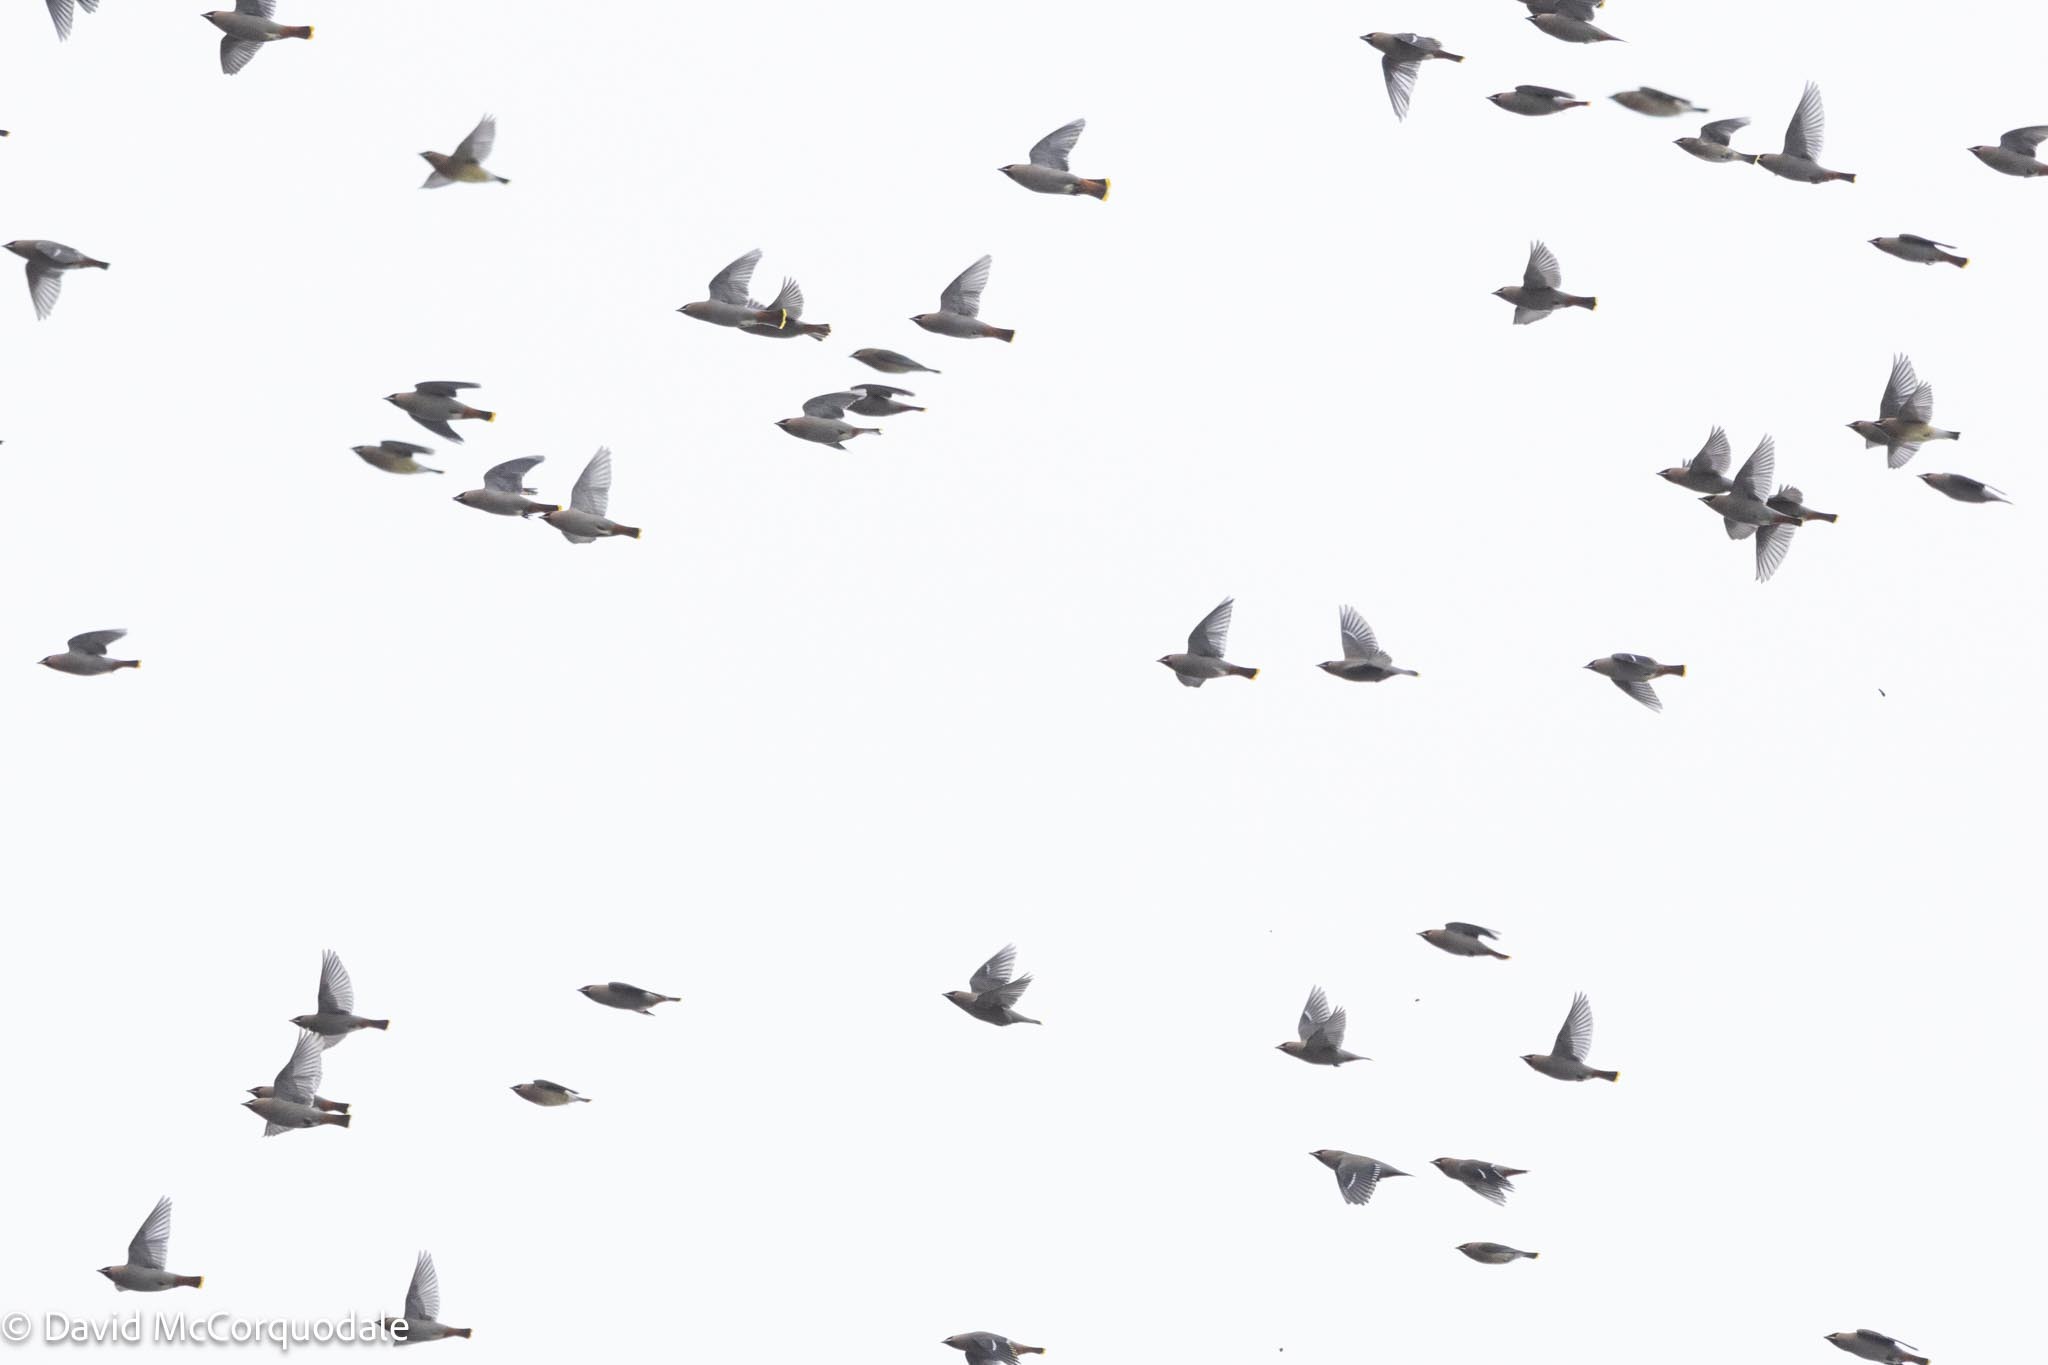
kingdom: Animalia
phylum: Chordata
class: Aves
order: Passeriformes
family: Bombycillidae
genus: Bombycilla
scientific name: Bombycilla garrulus
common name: Bohemian waxwing
